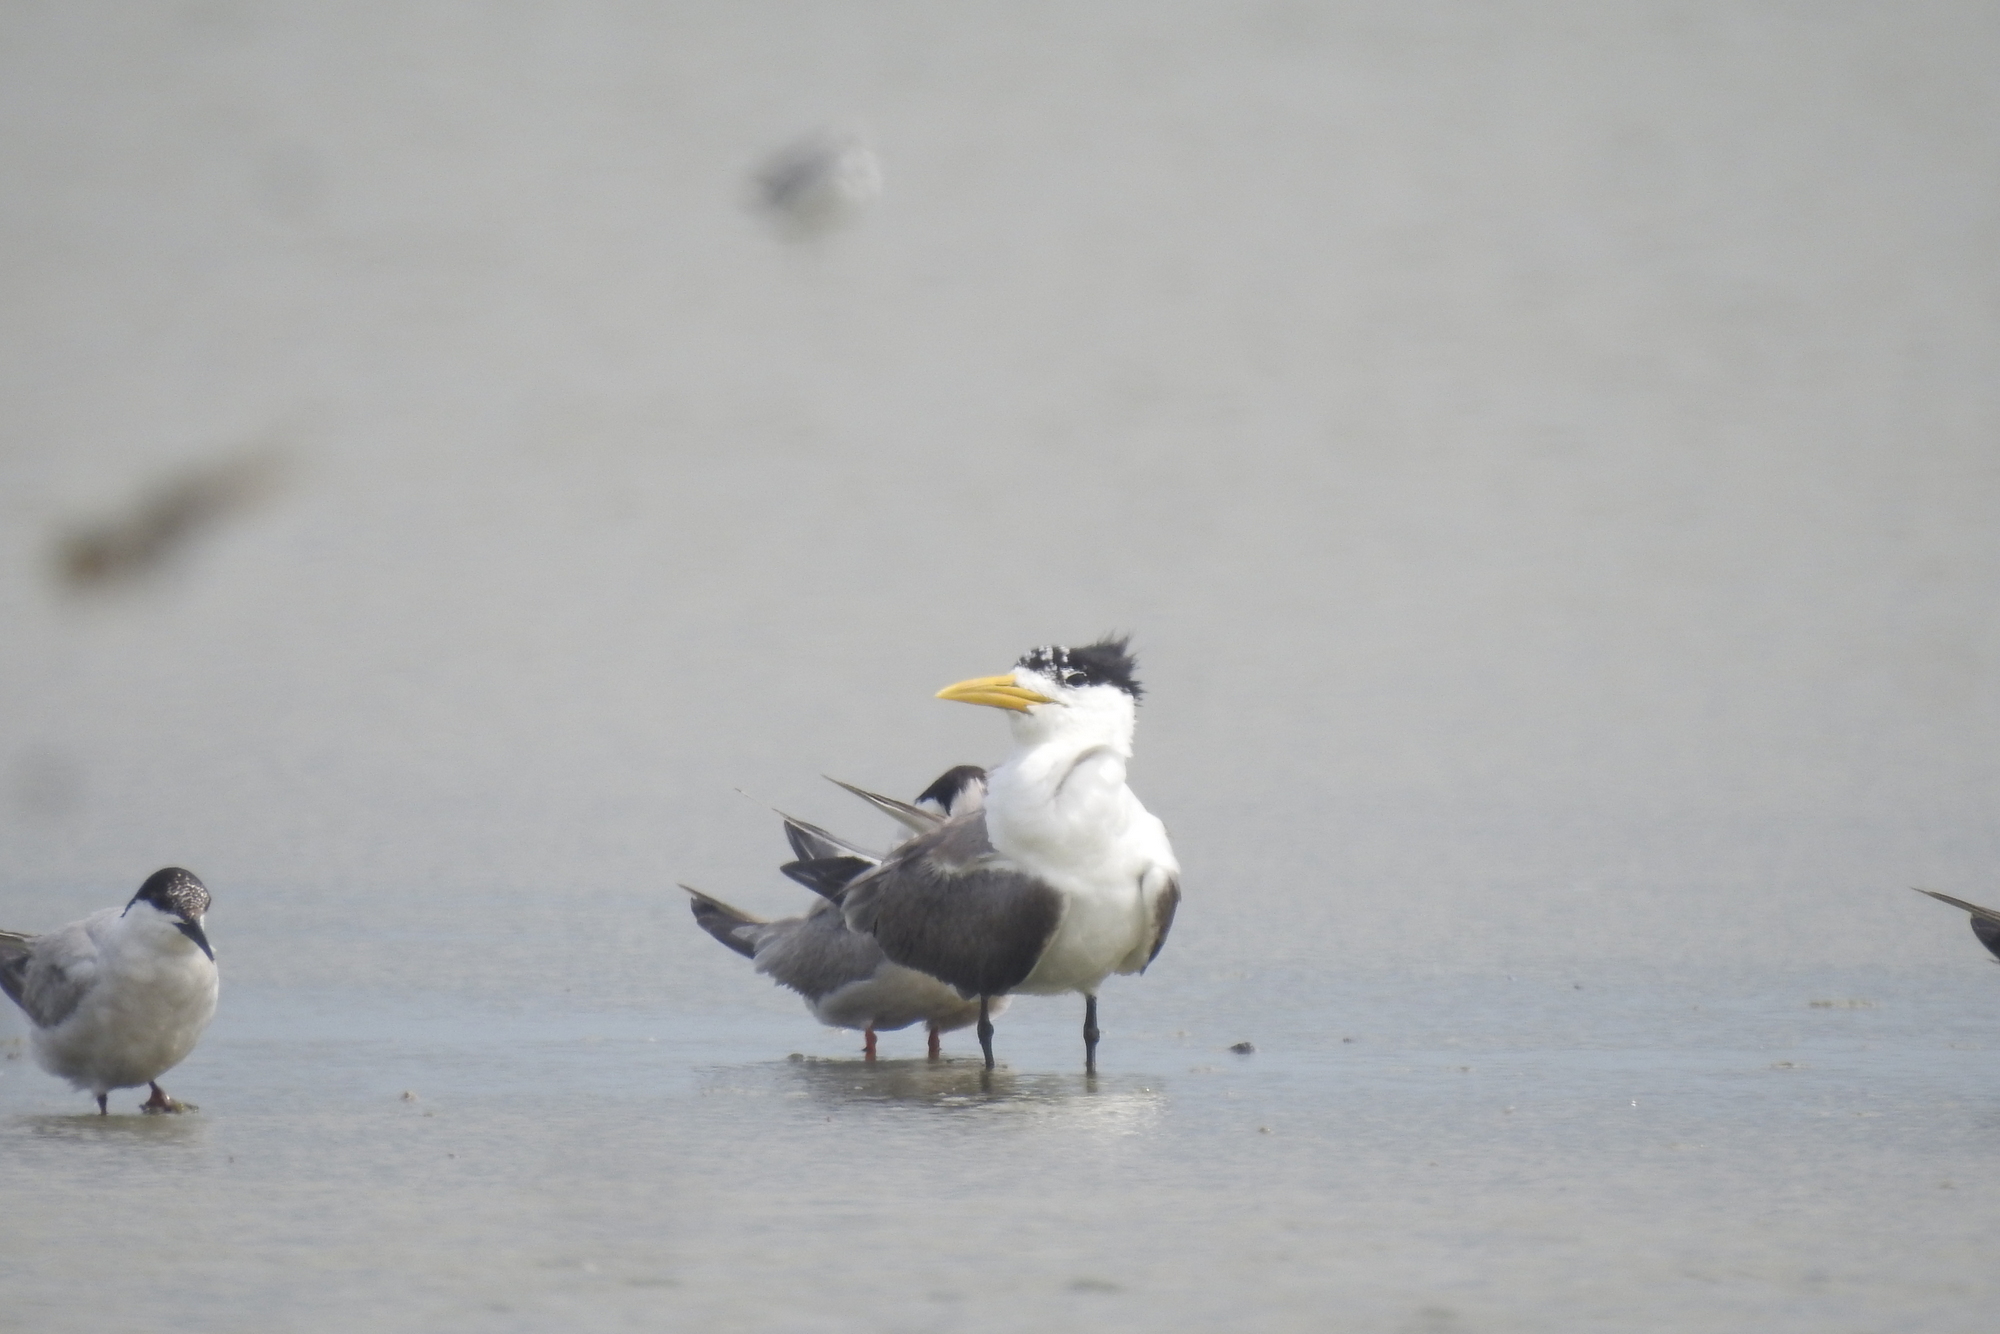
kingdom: Animalia
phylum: Chordata
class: Aves
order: Charadriiformes
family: Laridae
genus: Thalasseus
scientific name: Thalasseus bergii
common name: Greater crested tern
